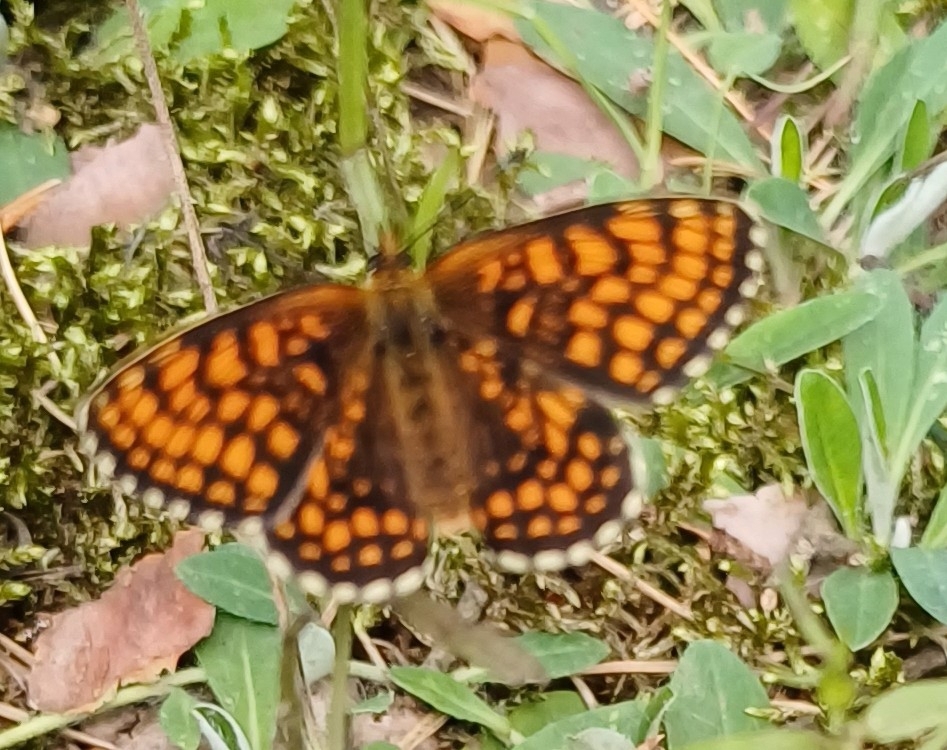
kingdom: Animalia
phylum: Arthropoda
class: Insecta
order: Lepidoptera
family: Nymphalidae
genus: Melitaea
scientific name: Melitaea athalia
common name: Heath fritillary
